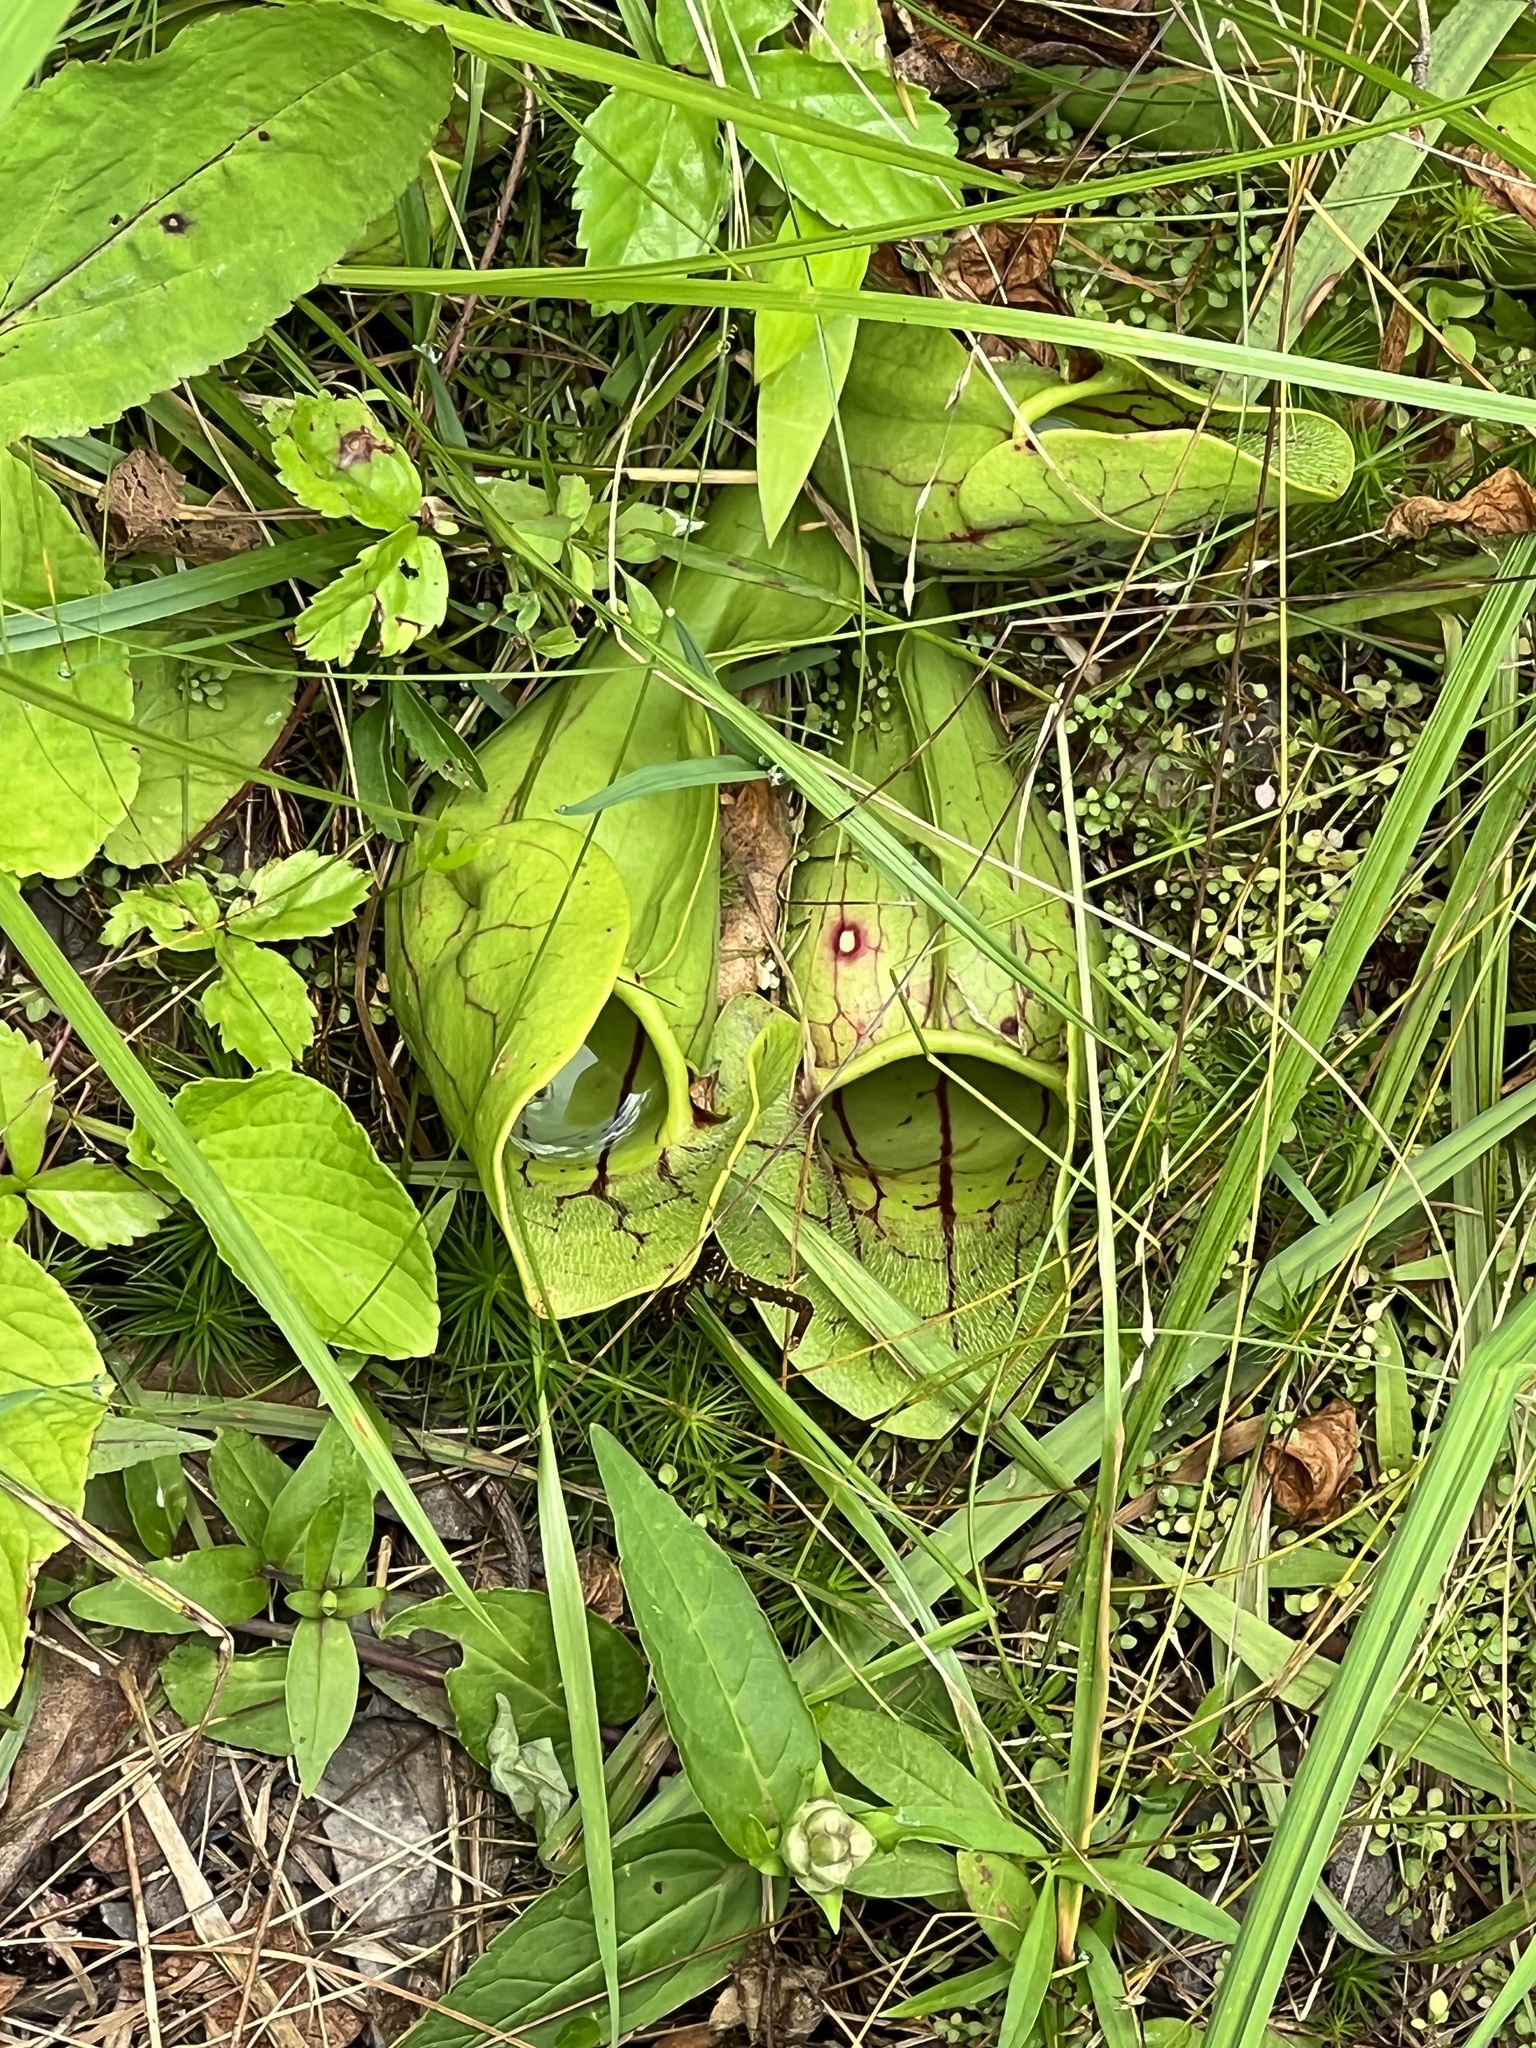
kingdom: Plantae
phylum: Tracheophyta
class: Magnoliopsida
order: Ericales
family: Sarraceniaceae
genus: Sarracenia
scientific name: Sarracenia purpurea
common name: Pitcherplant
